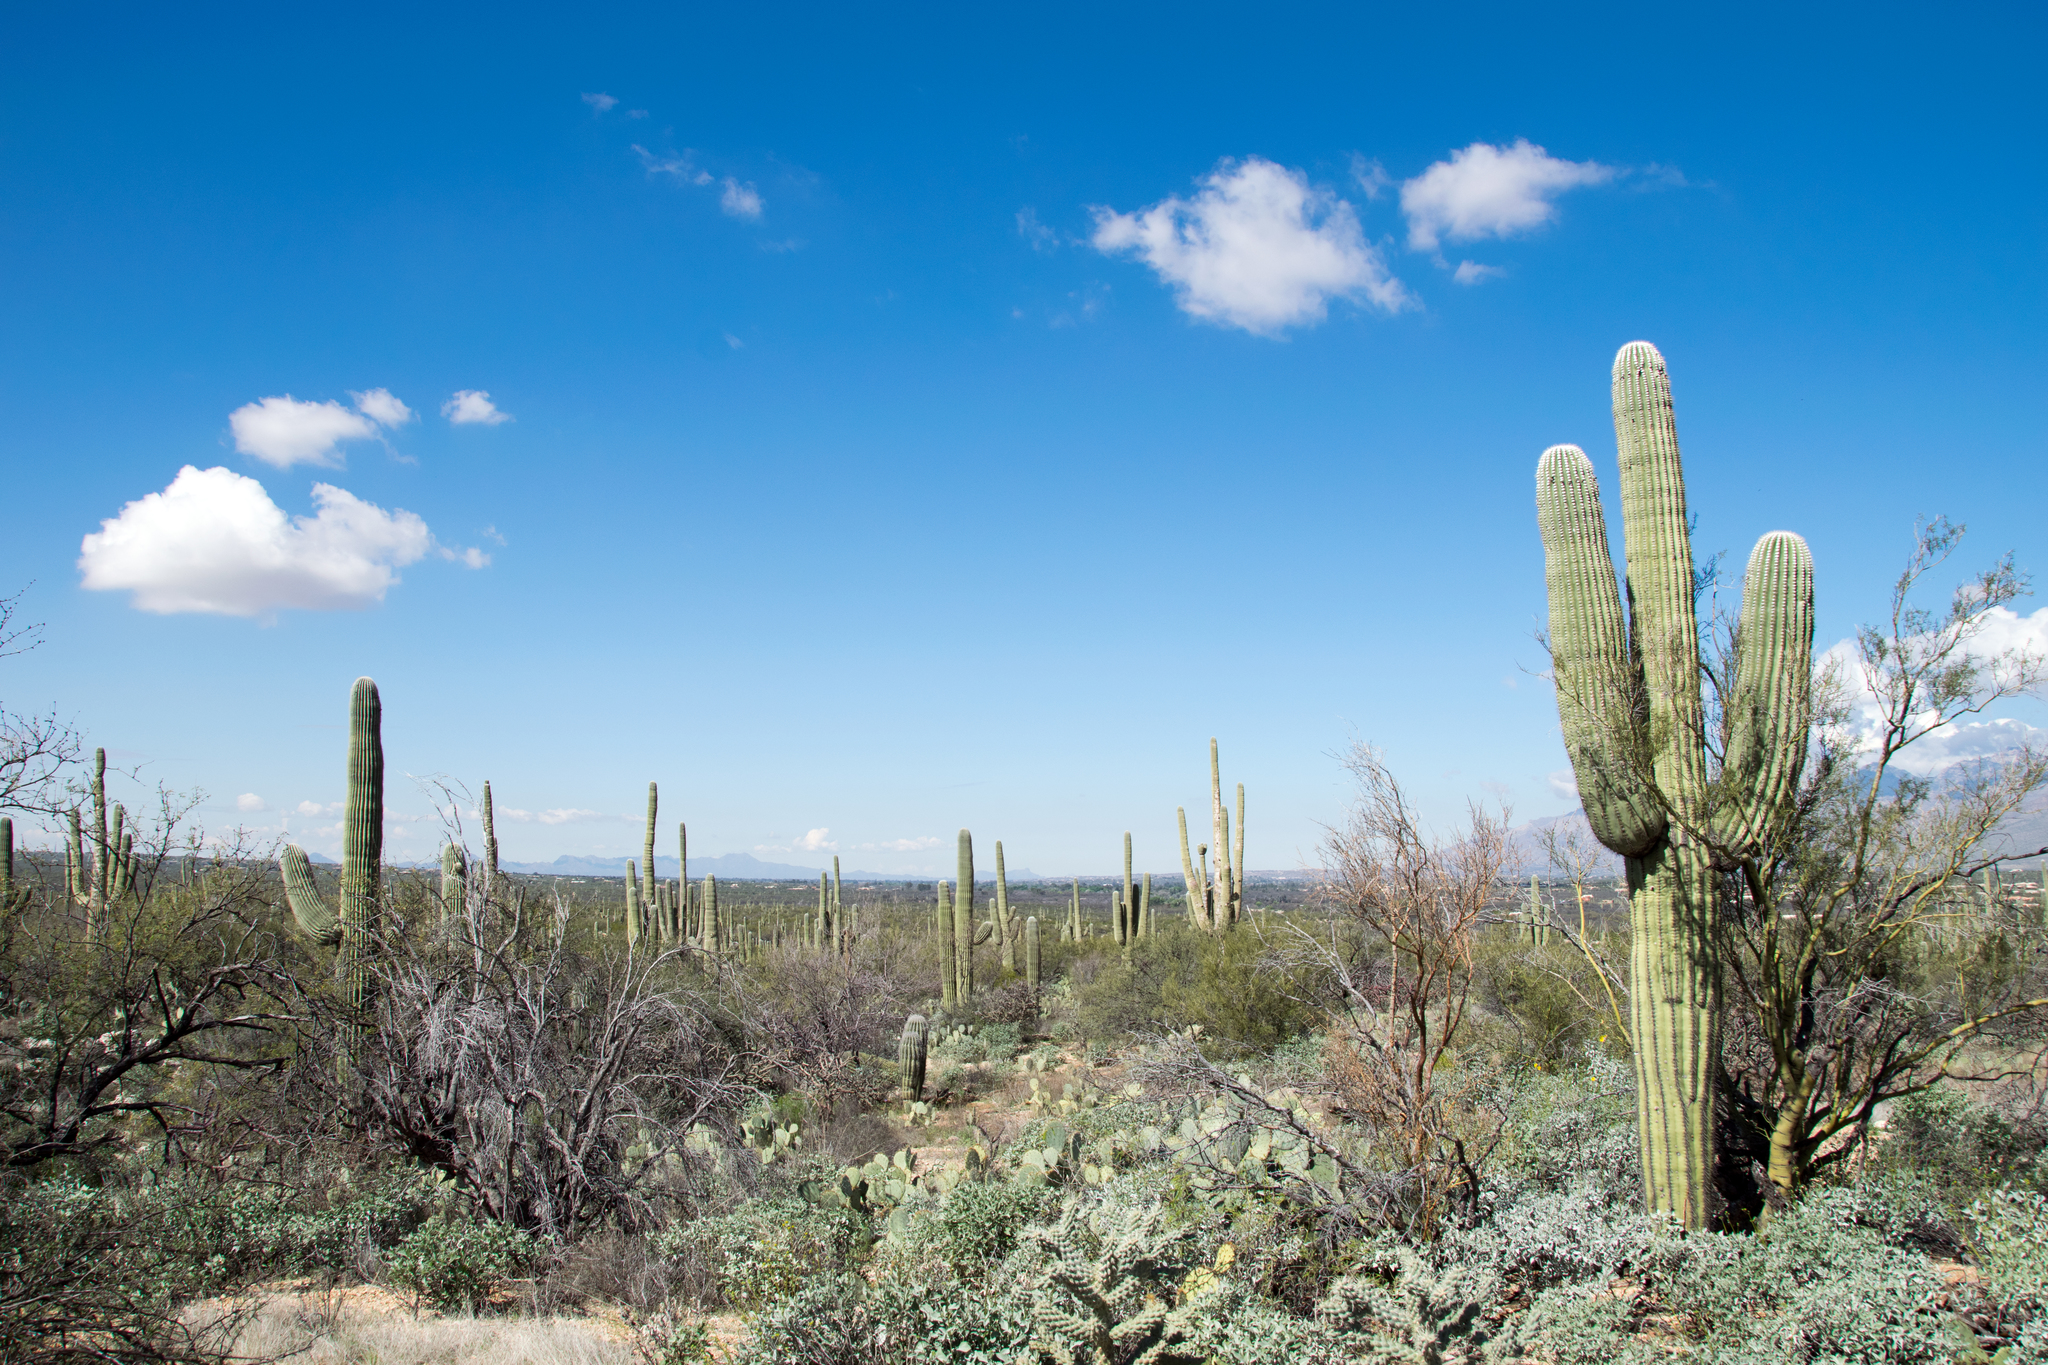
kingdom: Plantae
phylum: Tracheophyta
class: Magnoliopsida
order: Caryophyllales
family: Cactaceae
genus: Carnegiea
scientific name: Carnegiea gigantea
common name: Saguaro
